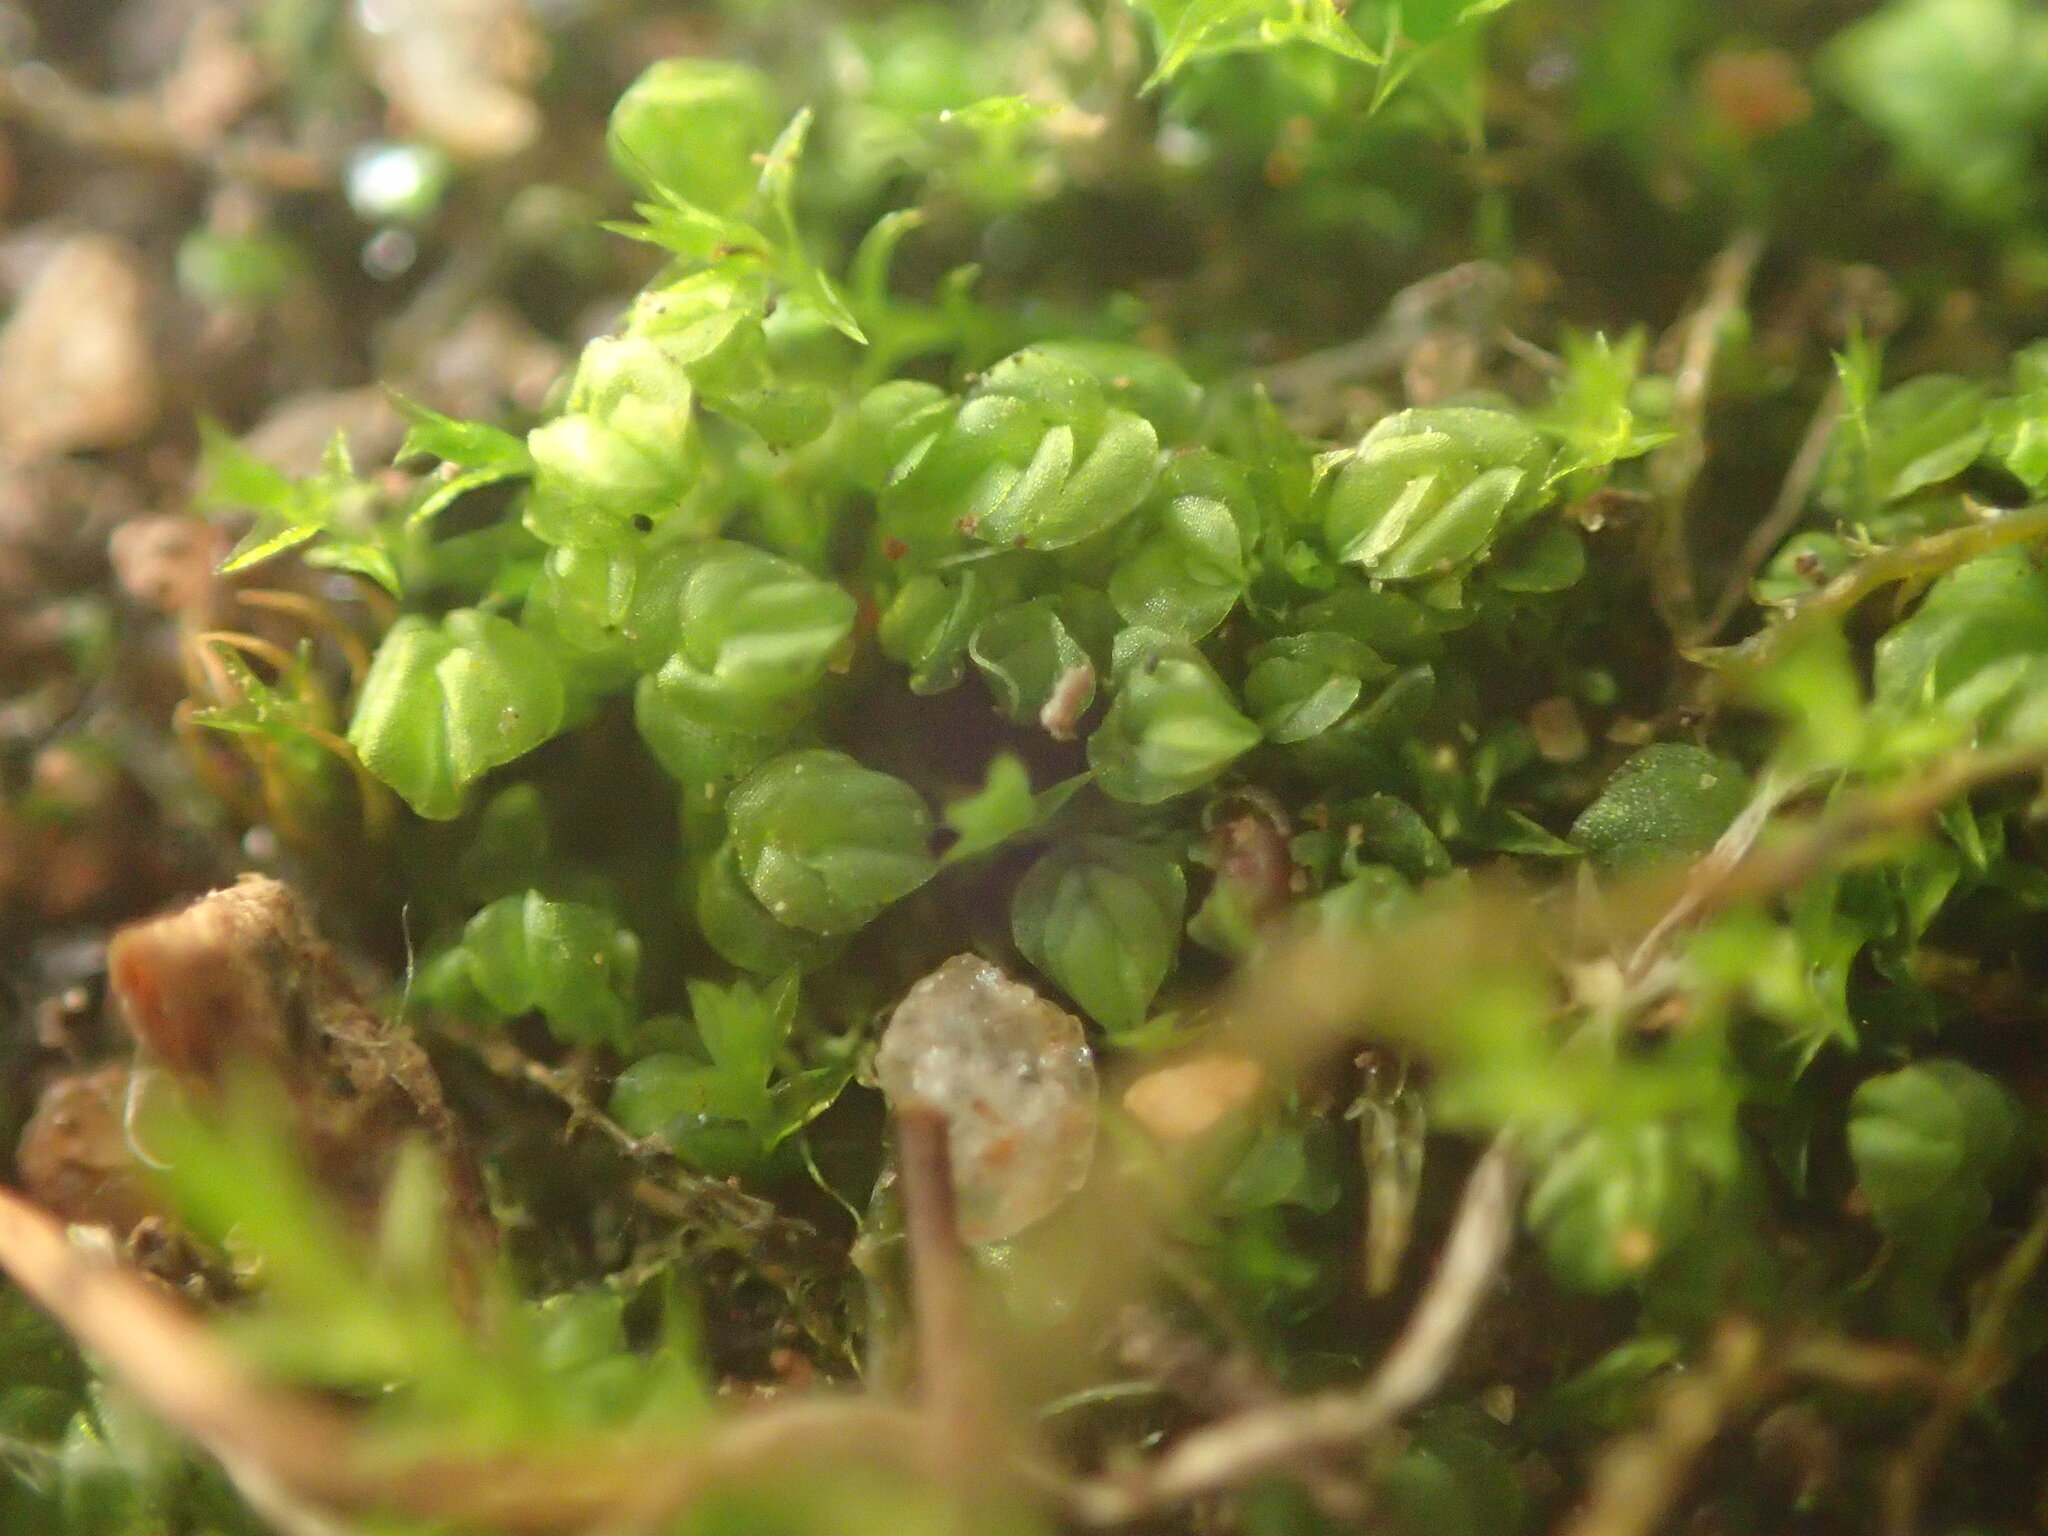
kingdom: Plantae
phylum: Marchantiophyta
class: Jungermanniopsida
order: Jungermanniales
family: Acrobolbaceae
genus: Lethocolea
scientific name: Lethocolea pansa
